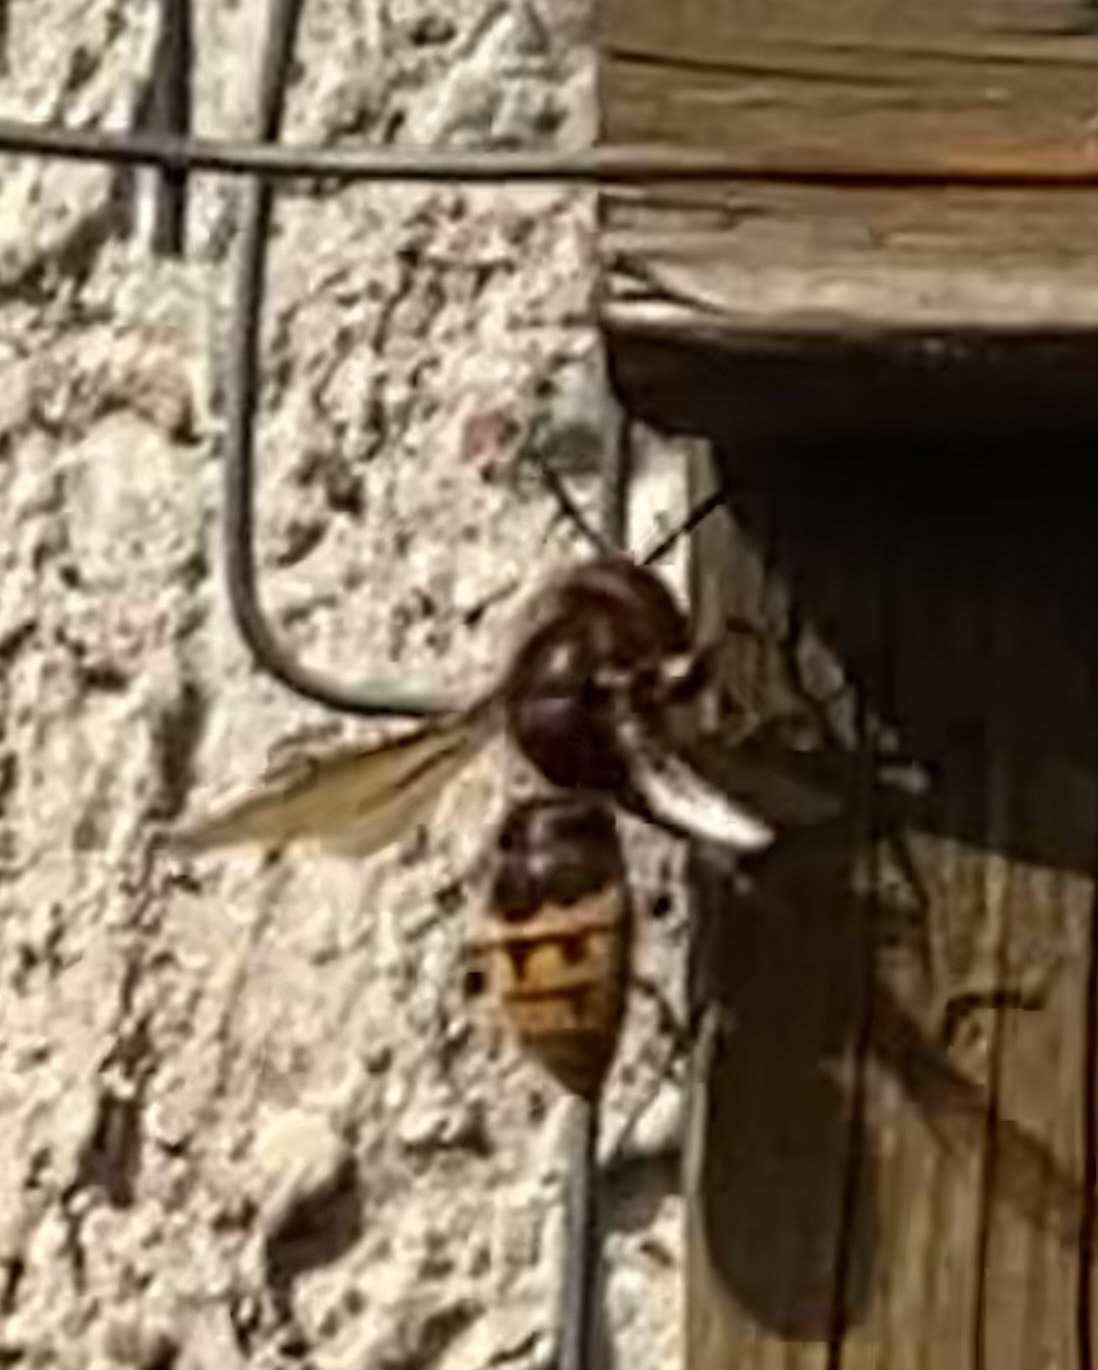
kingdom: Animalia
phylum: Arthropoda
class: Insecta
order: Hymenoptera
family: Vespidae
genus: Vespa
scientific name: Vespa crabro
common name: Hornet
